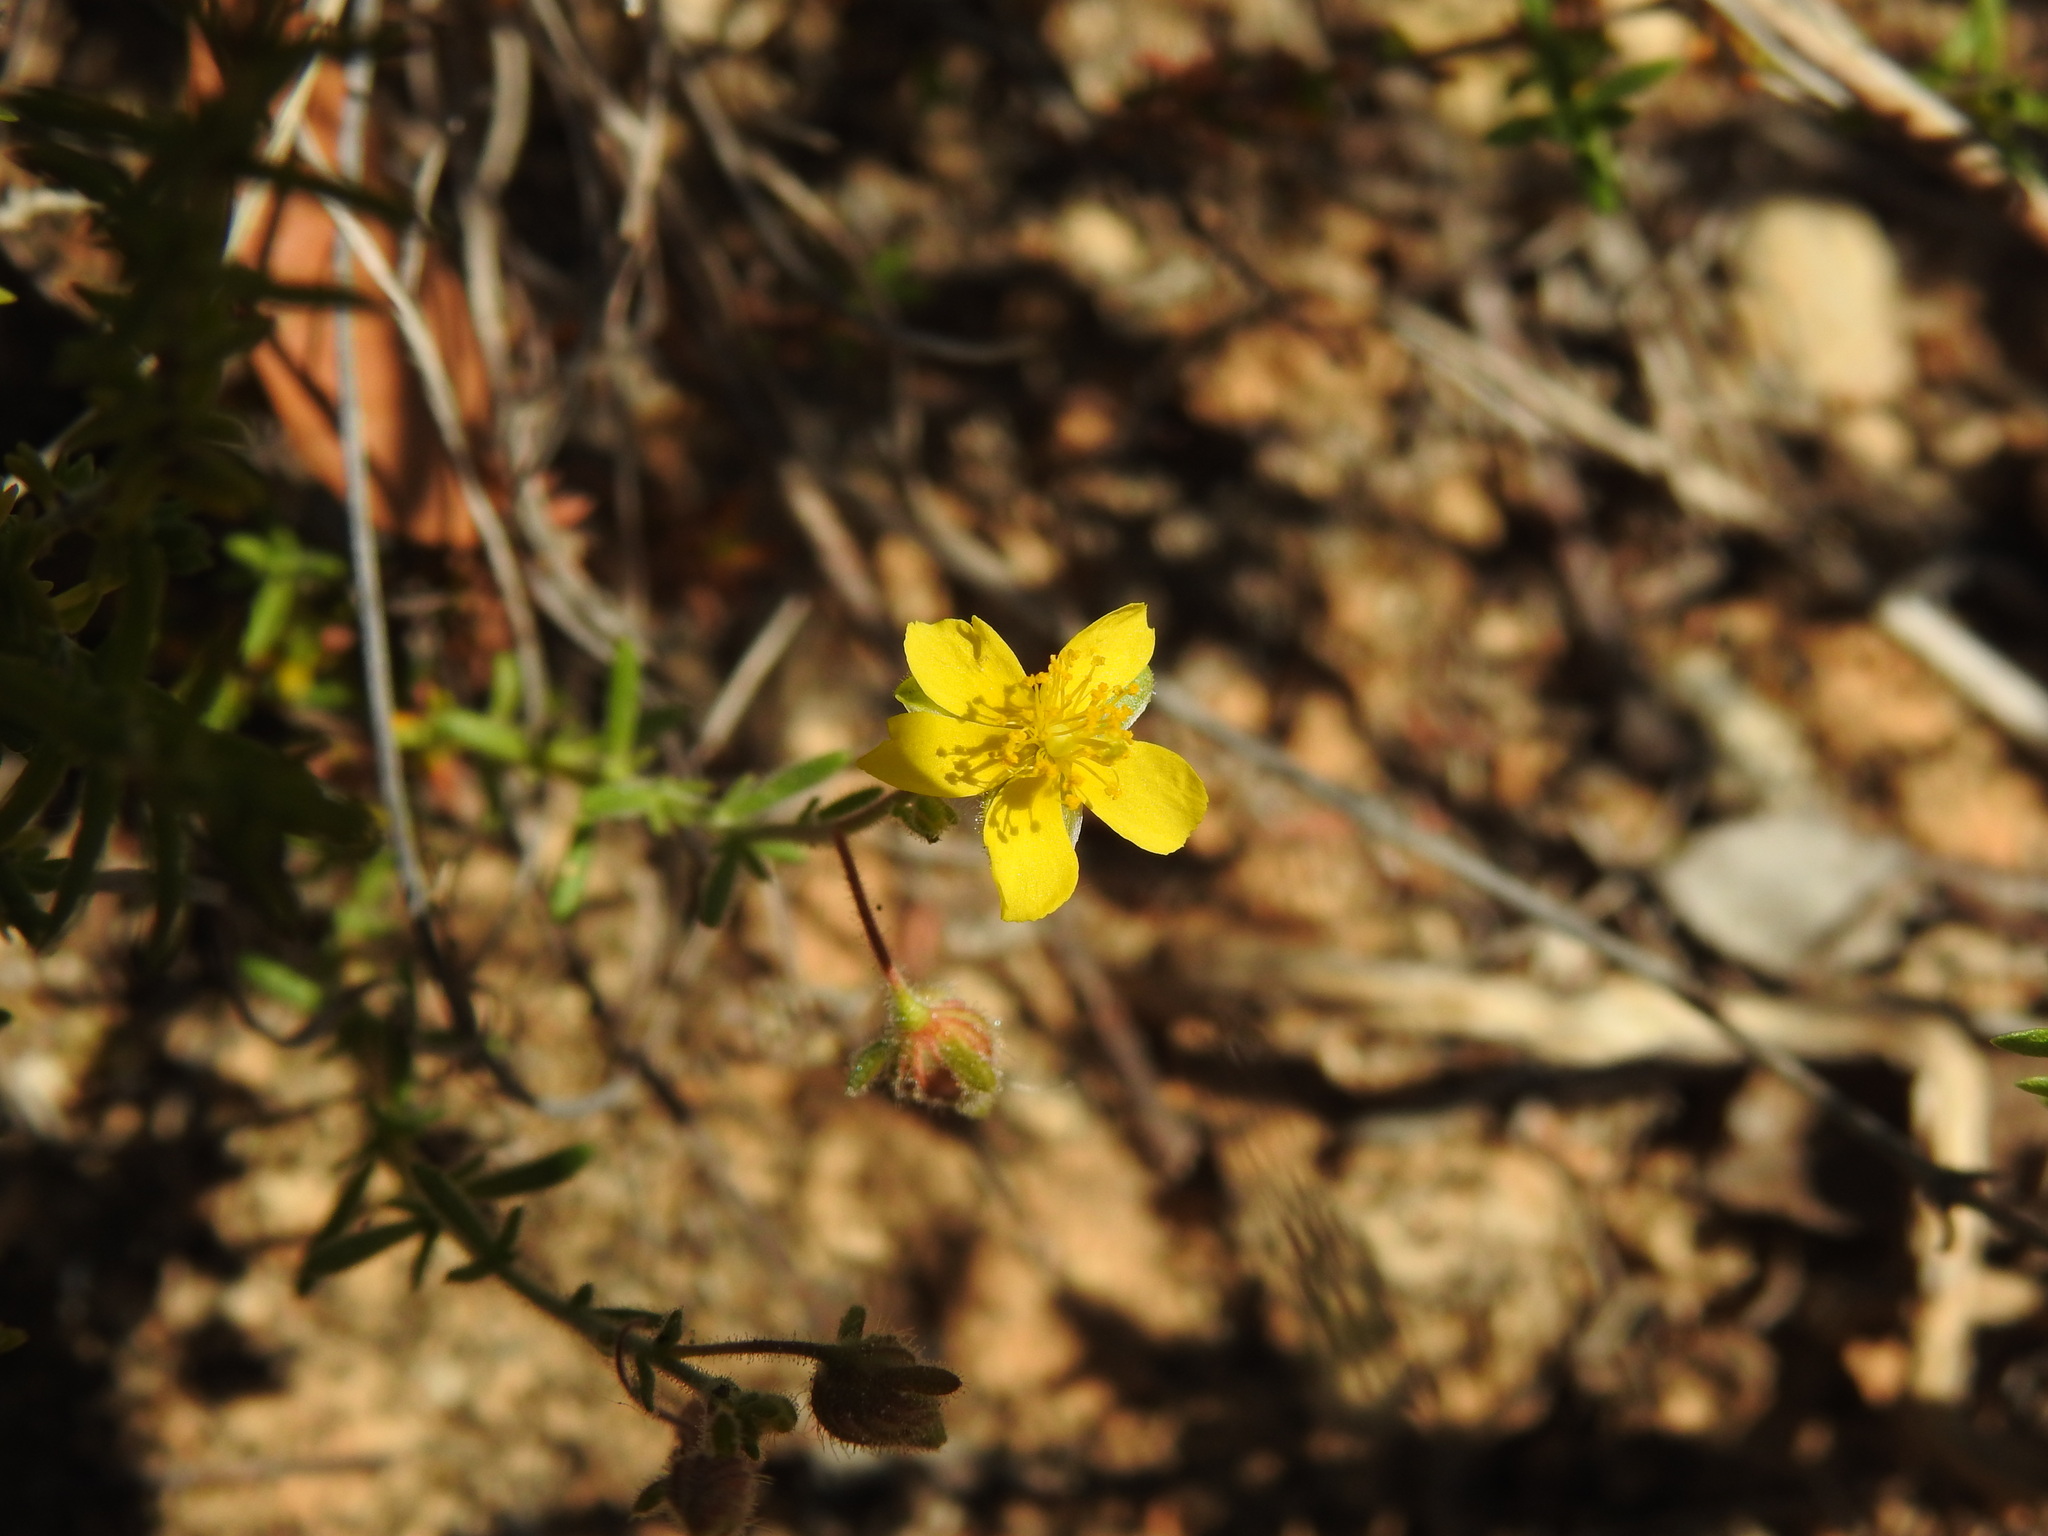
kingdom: Plantae
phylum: Tracheophyta
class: Magnoliopsida
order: Malvales
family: Cistaceae
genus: Fumana
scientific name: Fumana thymifolia
